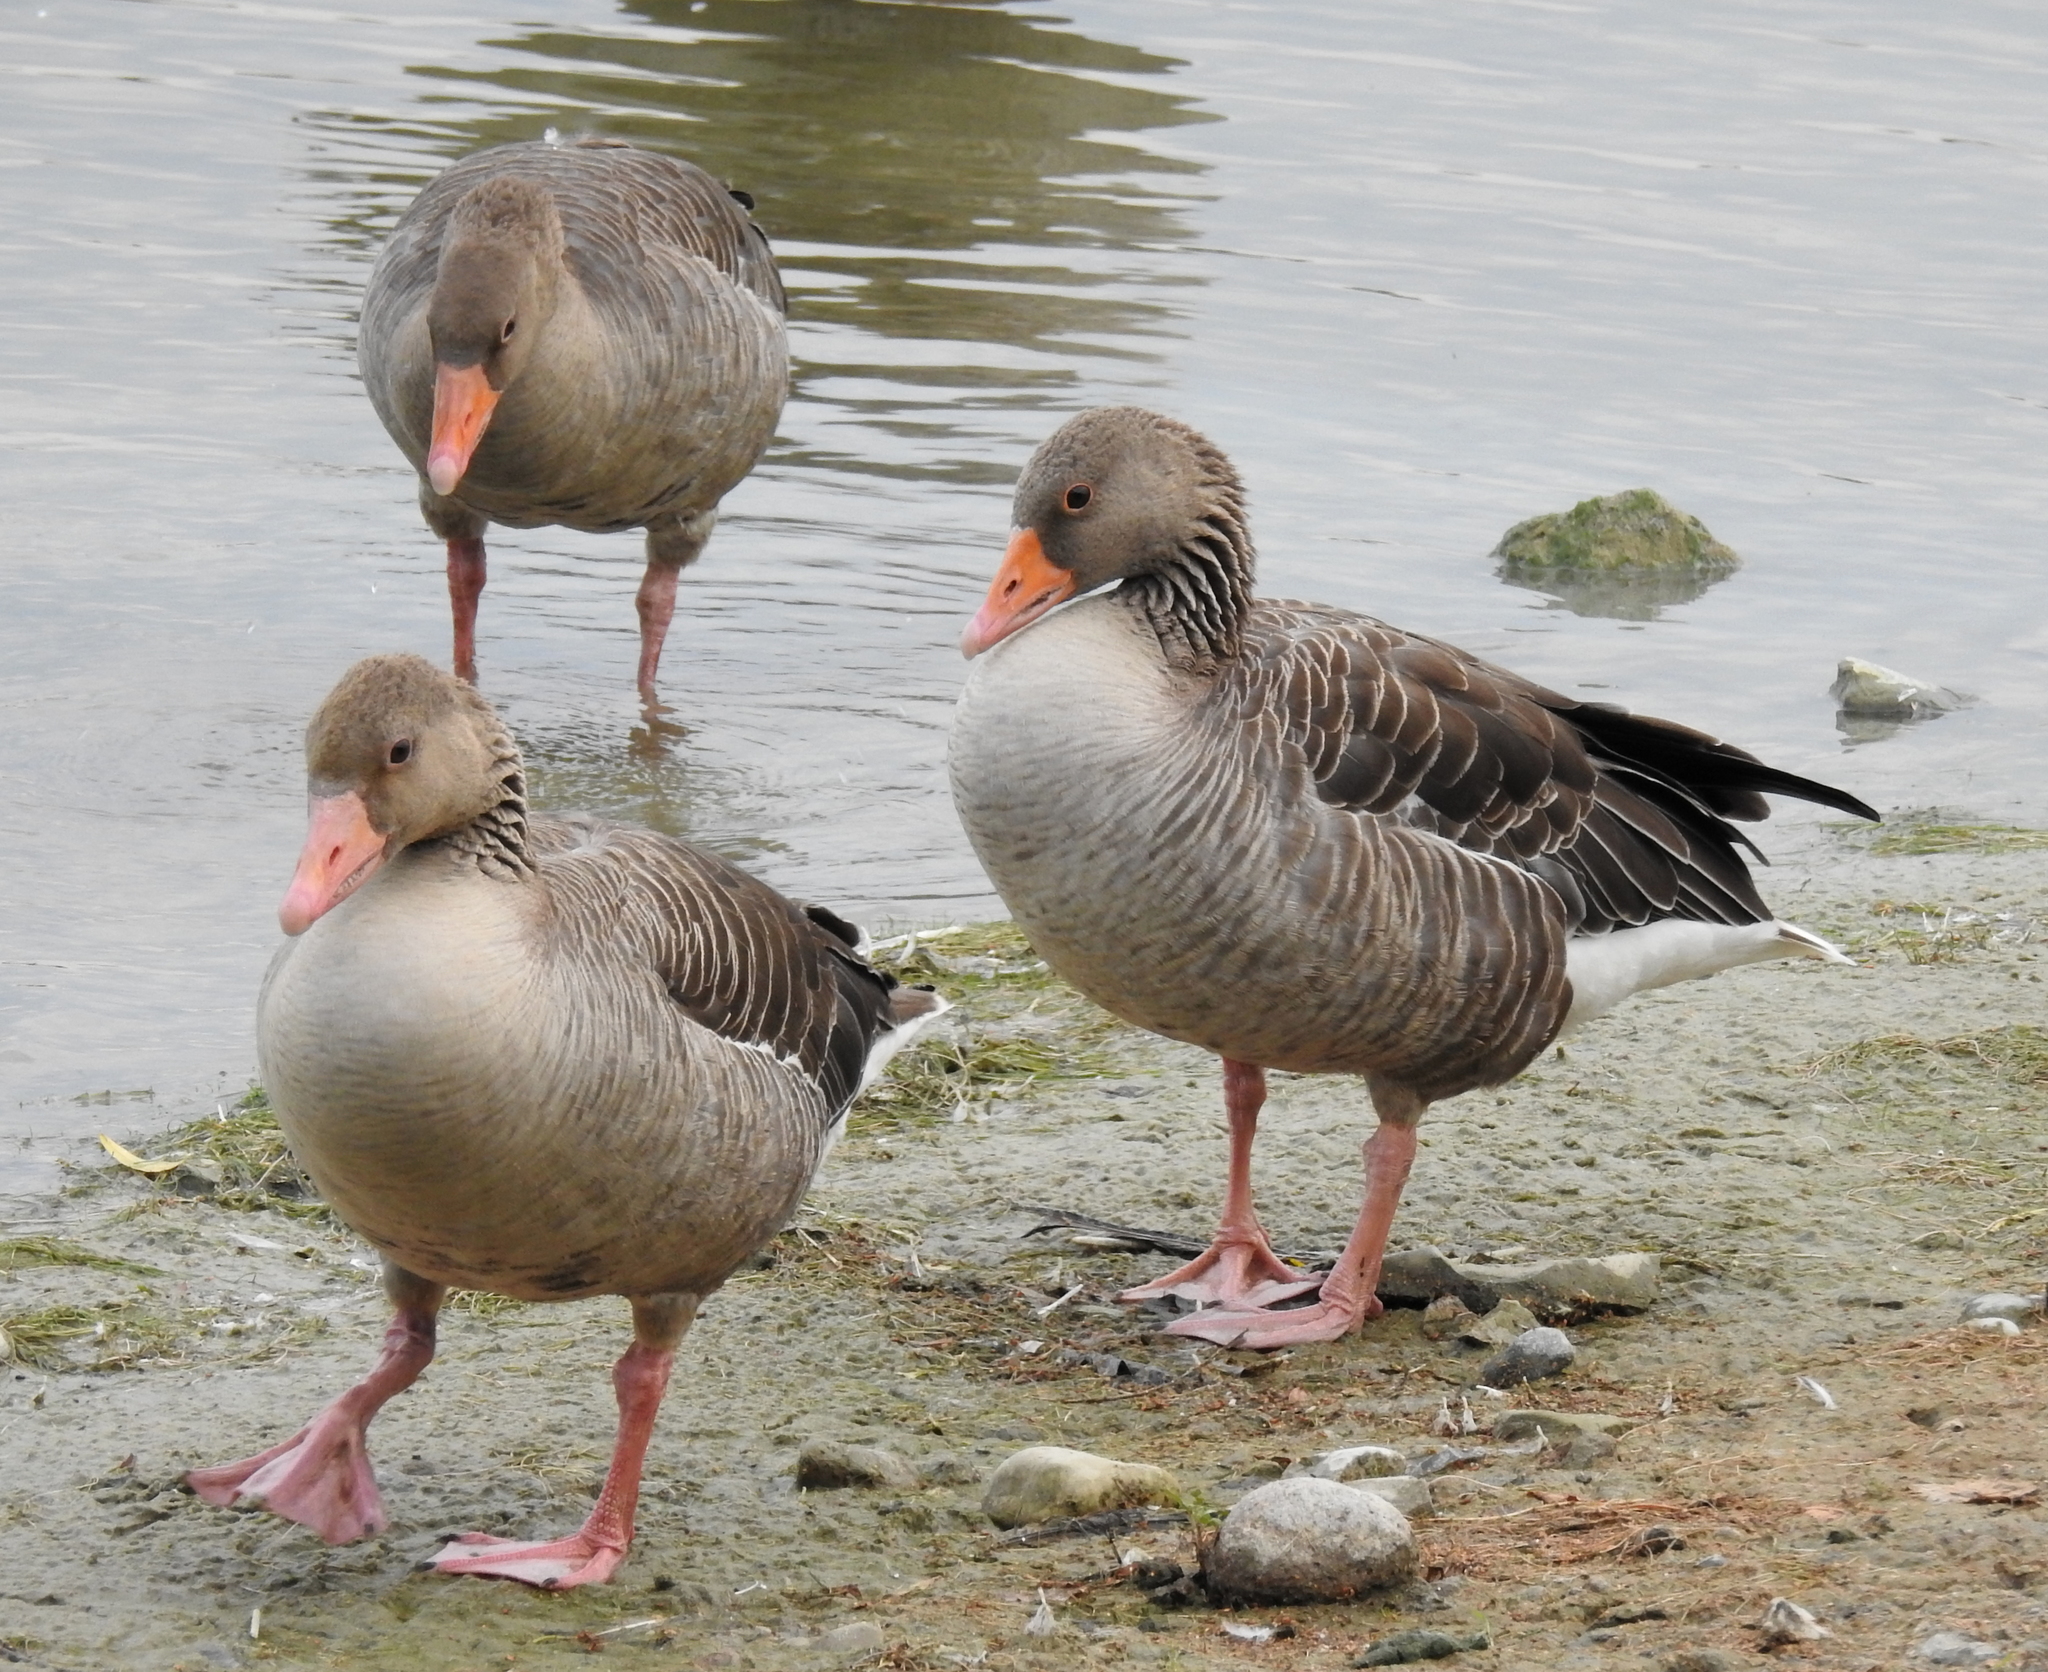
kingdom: Animalia
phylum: Chordata
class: Aves
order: Anseriformes
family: Anatidae
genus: Anser
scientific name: Anser anser
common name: Greylag goose
